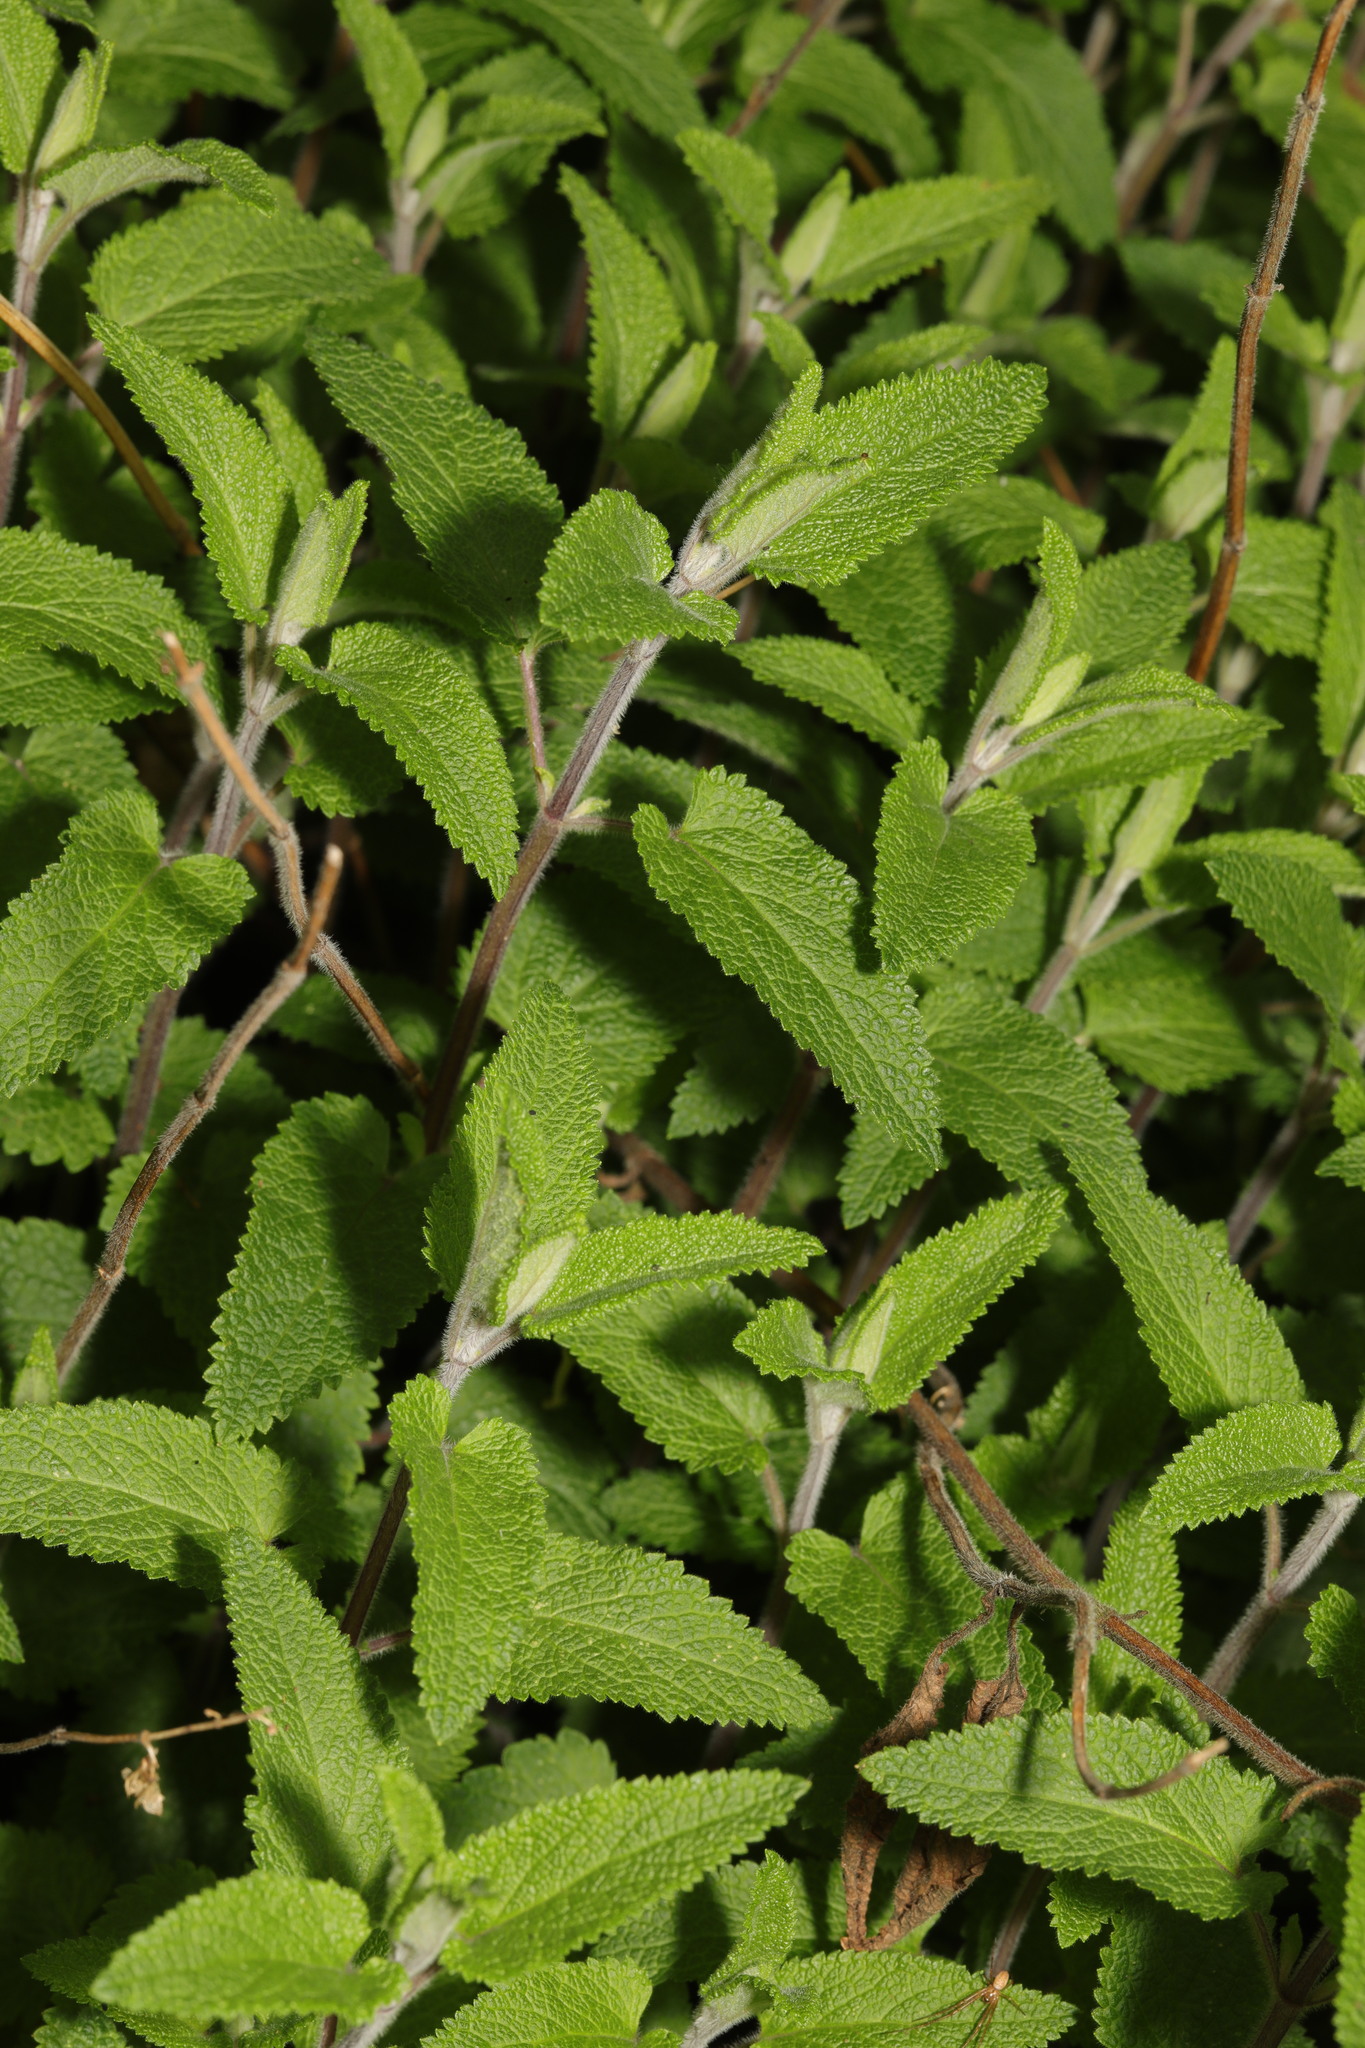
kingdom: Plantae
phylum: Tracheophyta
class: Magnoliopsida
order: Lamiales
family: Lamiaceae
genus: Teucrium
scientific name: Teucrium scorodonia
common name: Woodland germander
